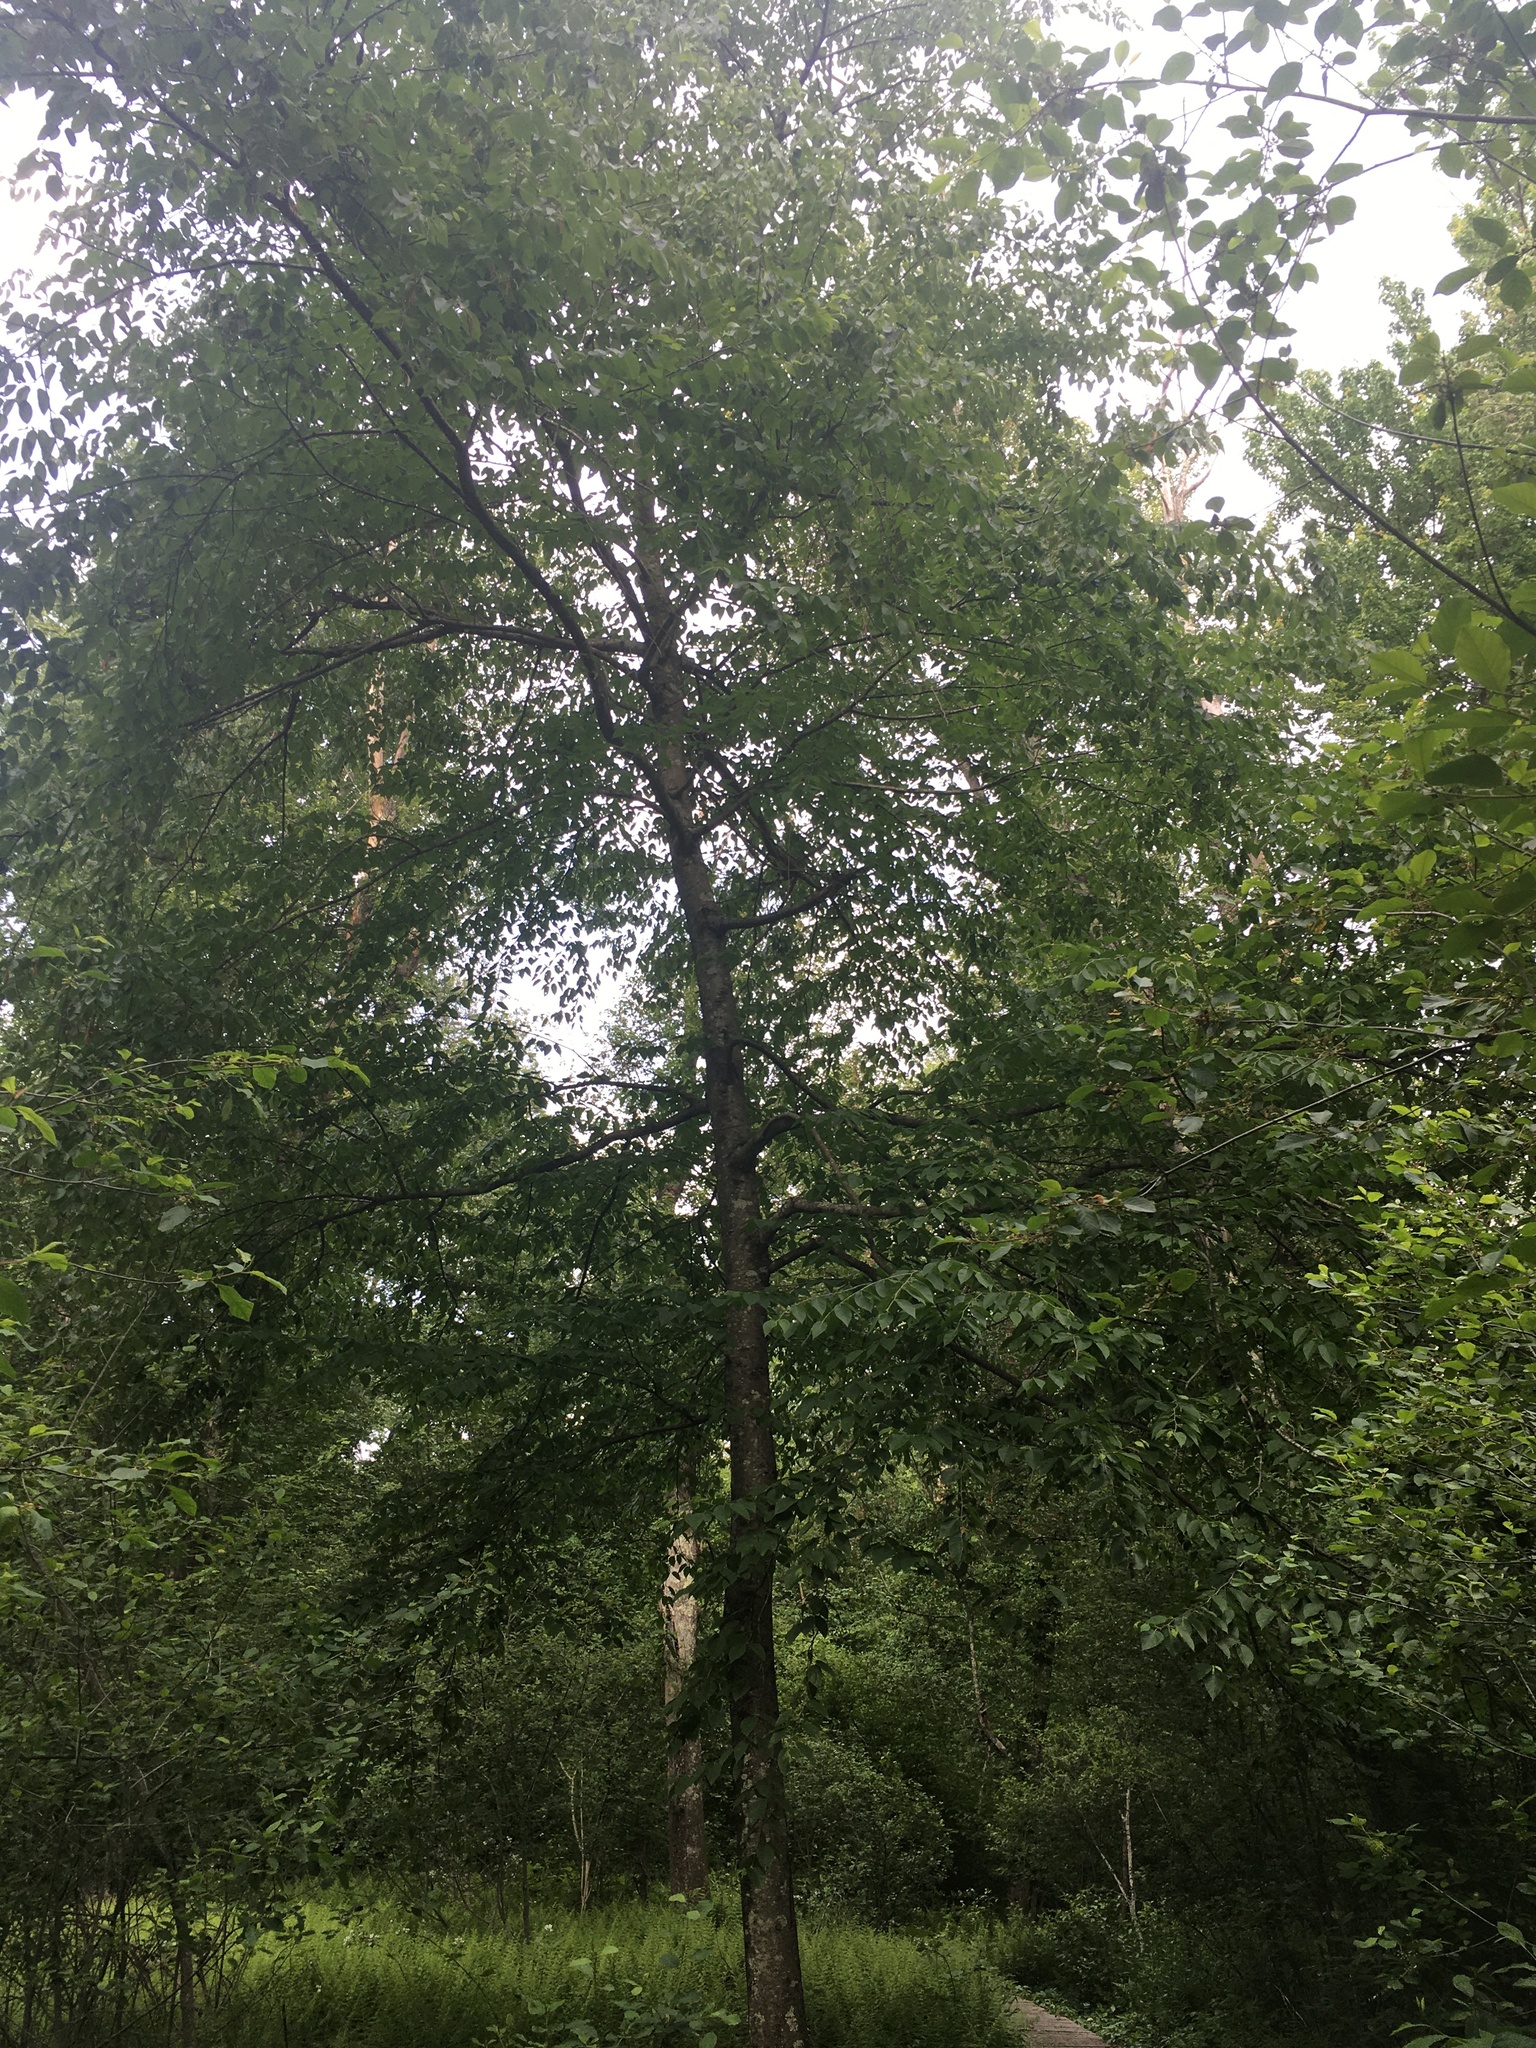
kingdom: Plantae
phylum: Tracheophyta
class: Magnoliopsida
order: Fagales
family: Betulaceae
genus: Betula
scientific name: Betula lenta
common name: Black birch
